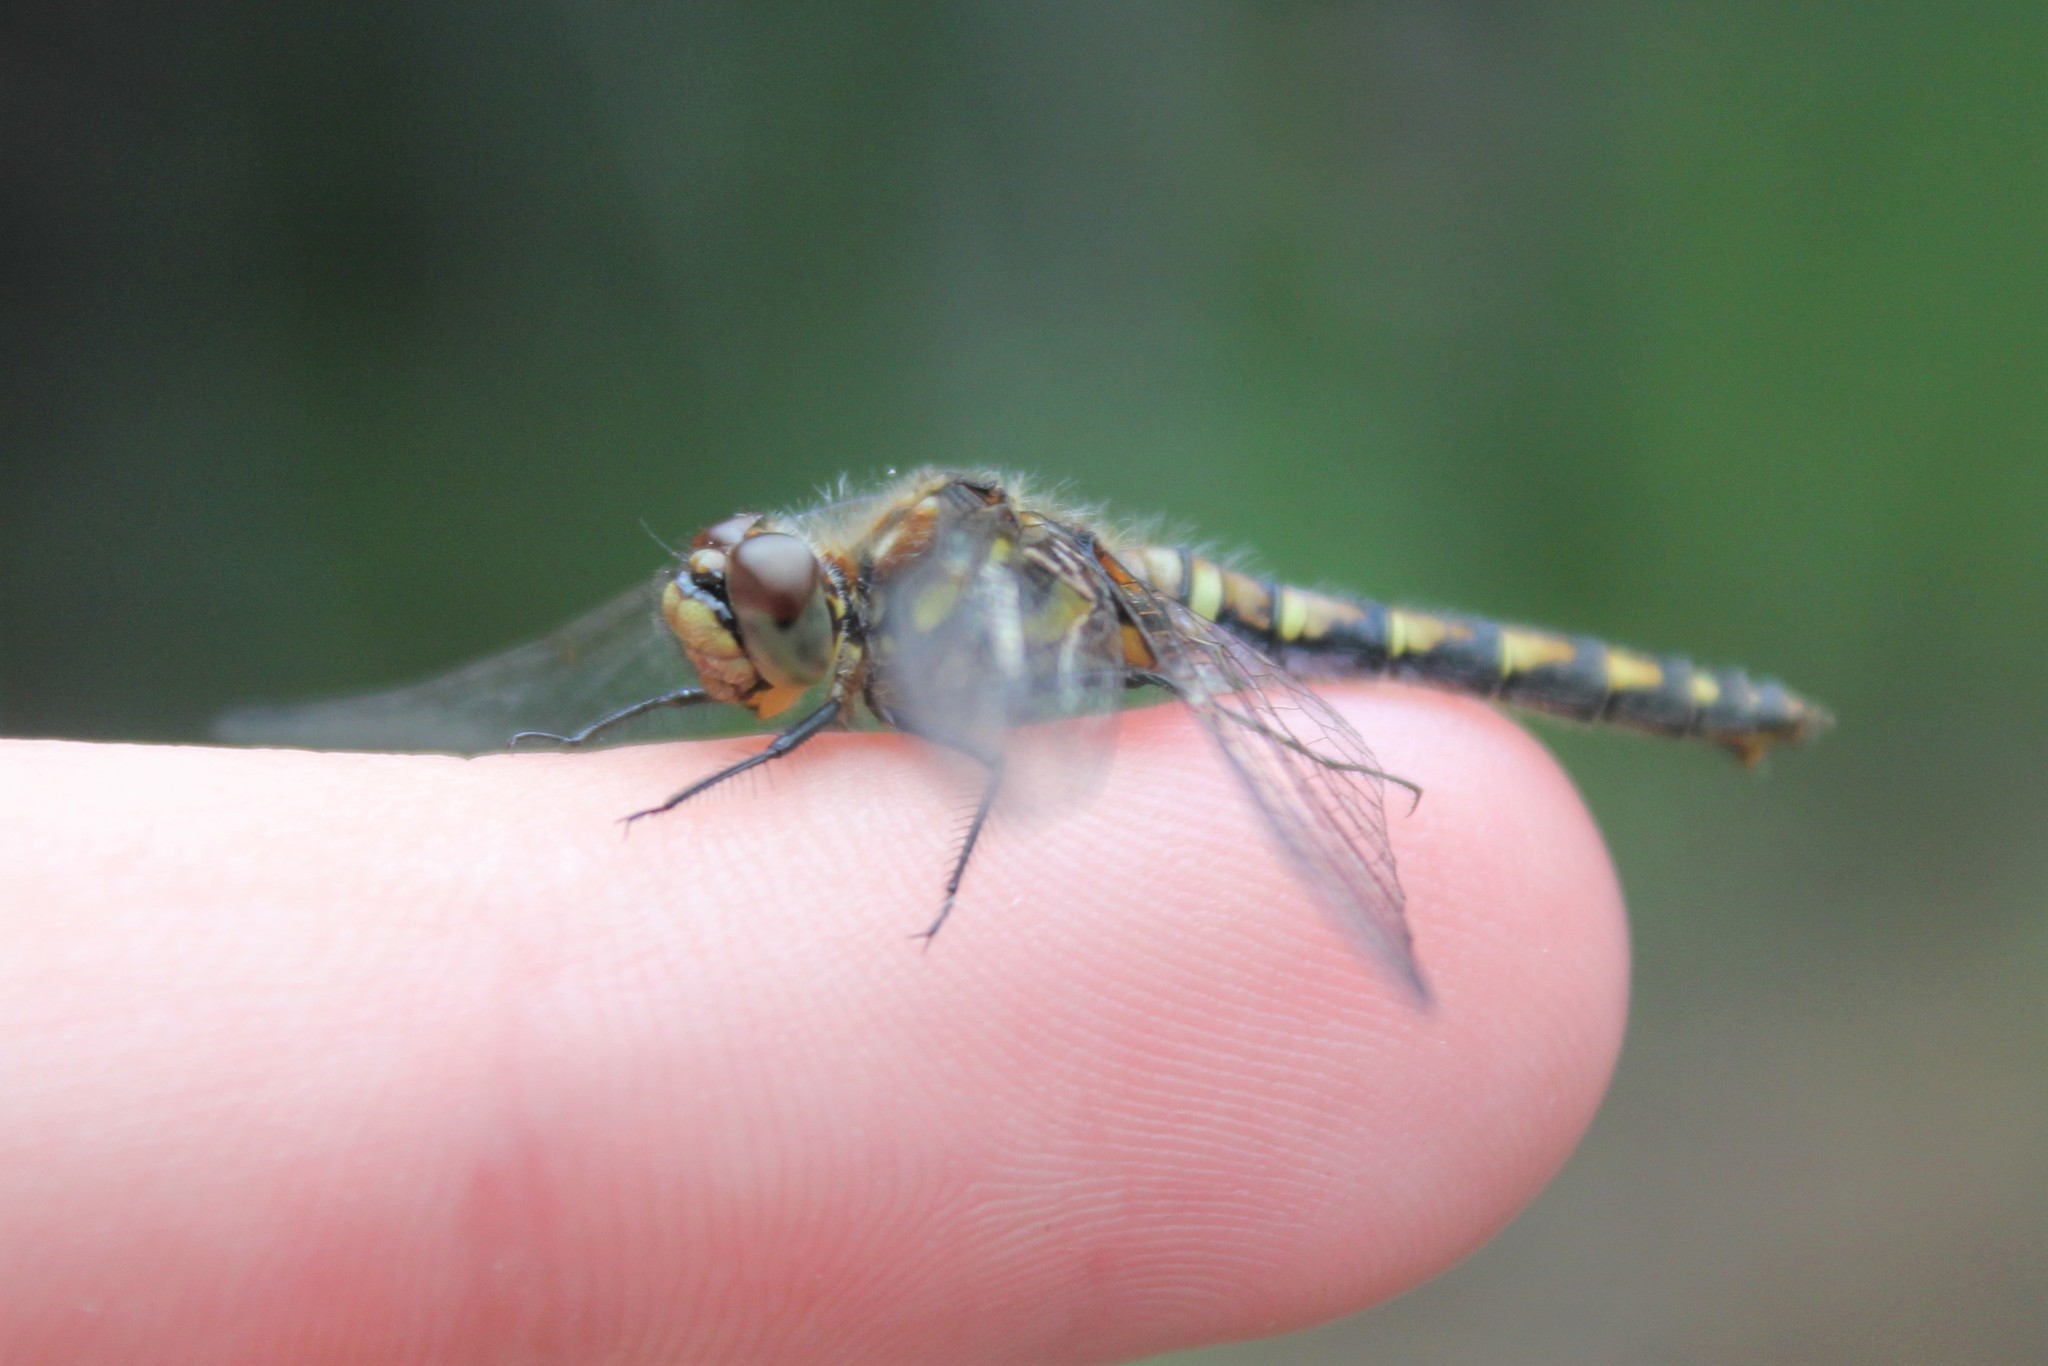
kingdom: Animalia
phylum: Arthropoda
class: Insecta
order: Odonata
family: Libellulidae
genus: Sympetrum
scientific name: Sympetrum danae
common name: Black darter
